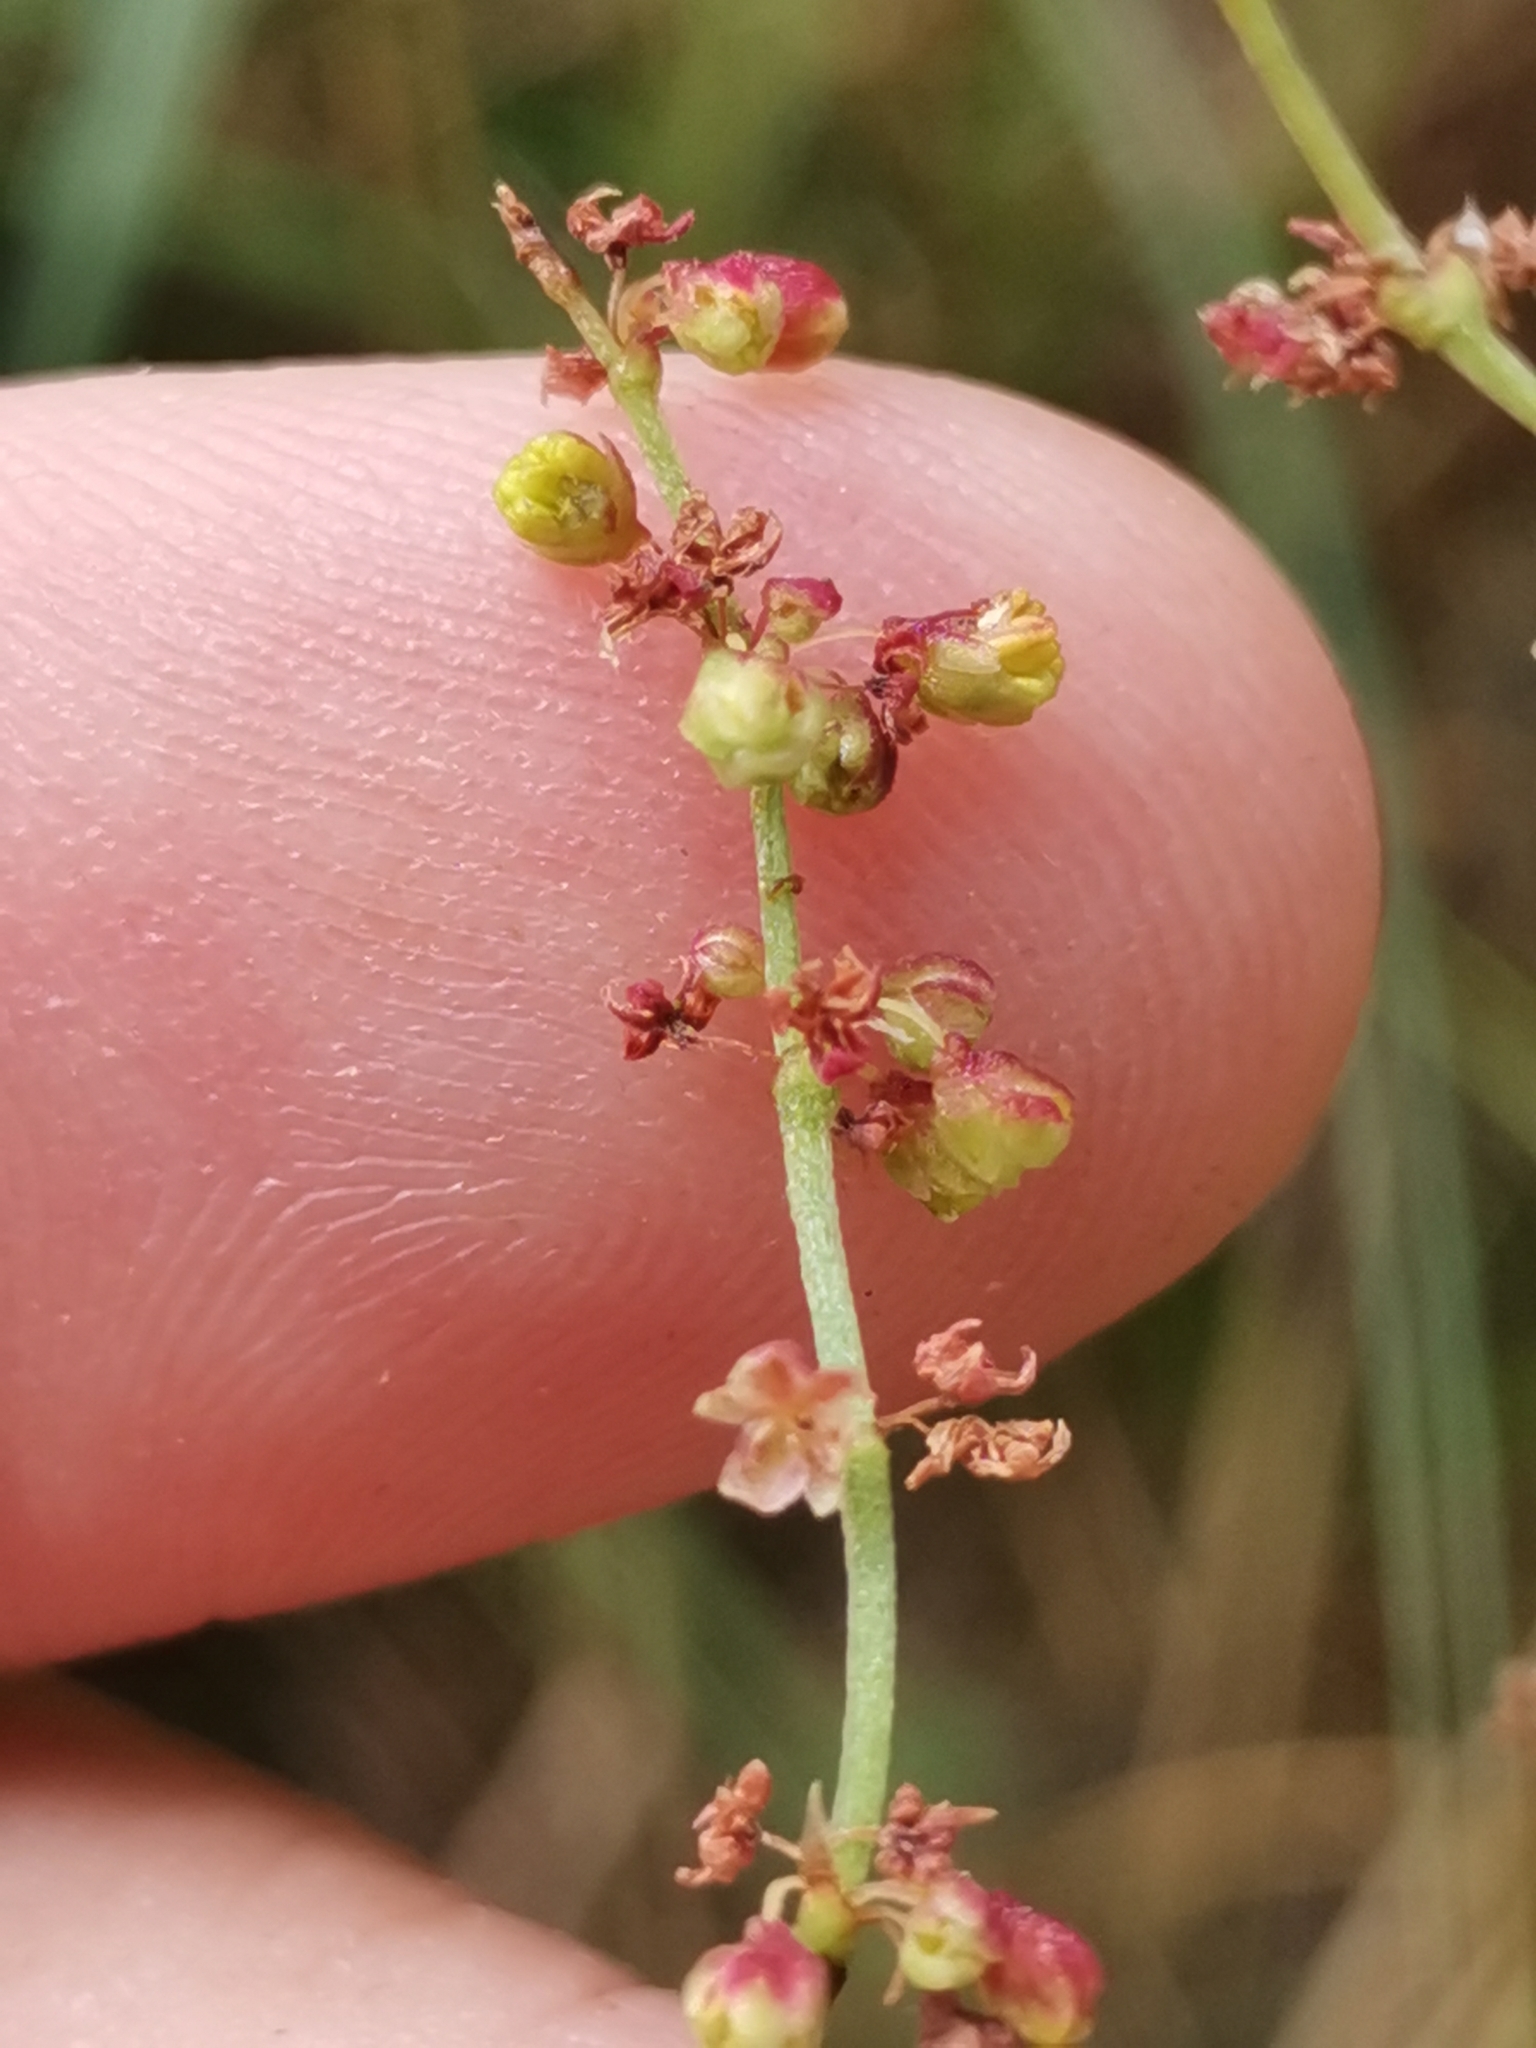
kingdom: Plantae
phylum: Tracheophyta
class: Magnoliopsida
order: Caryophyllales
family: Polygonaceae
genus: Rumex
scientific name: Rumex acetosella
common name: Common sheep sorrel
